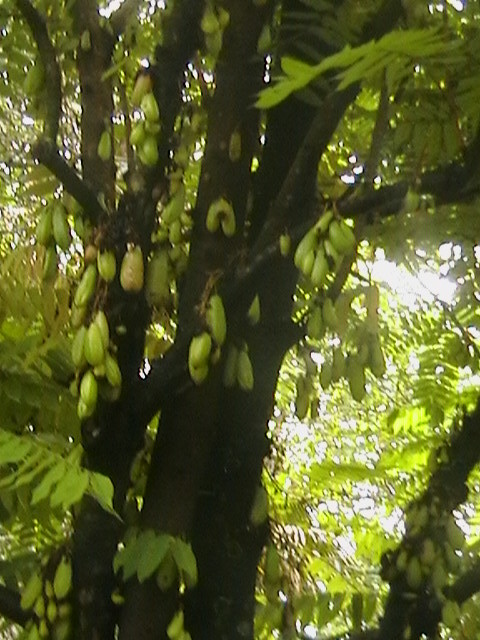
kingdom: Plantae
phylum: Tracheophyta
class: Magnoliopsida
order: Oxalidales
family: Oxalidaceae
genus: Averrhoa
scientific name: Averrhoa bilimbi
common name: Bilimbi
